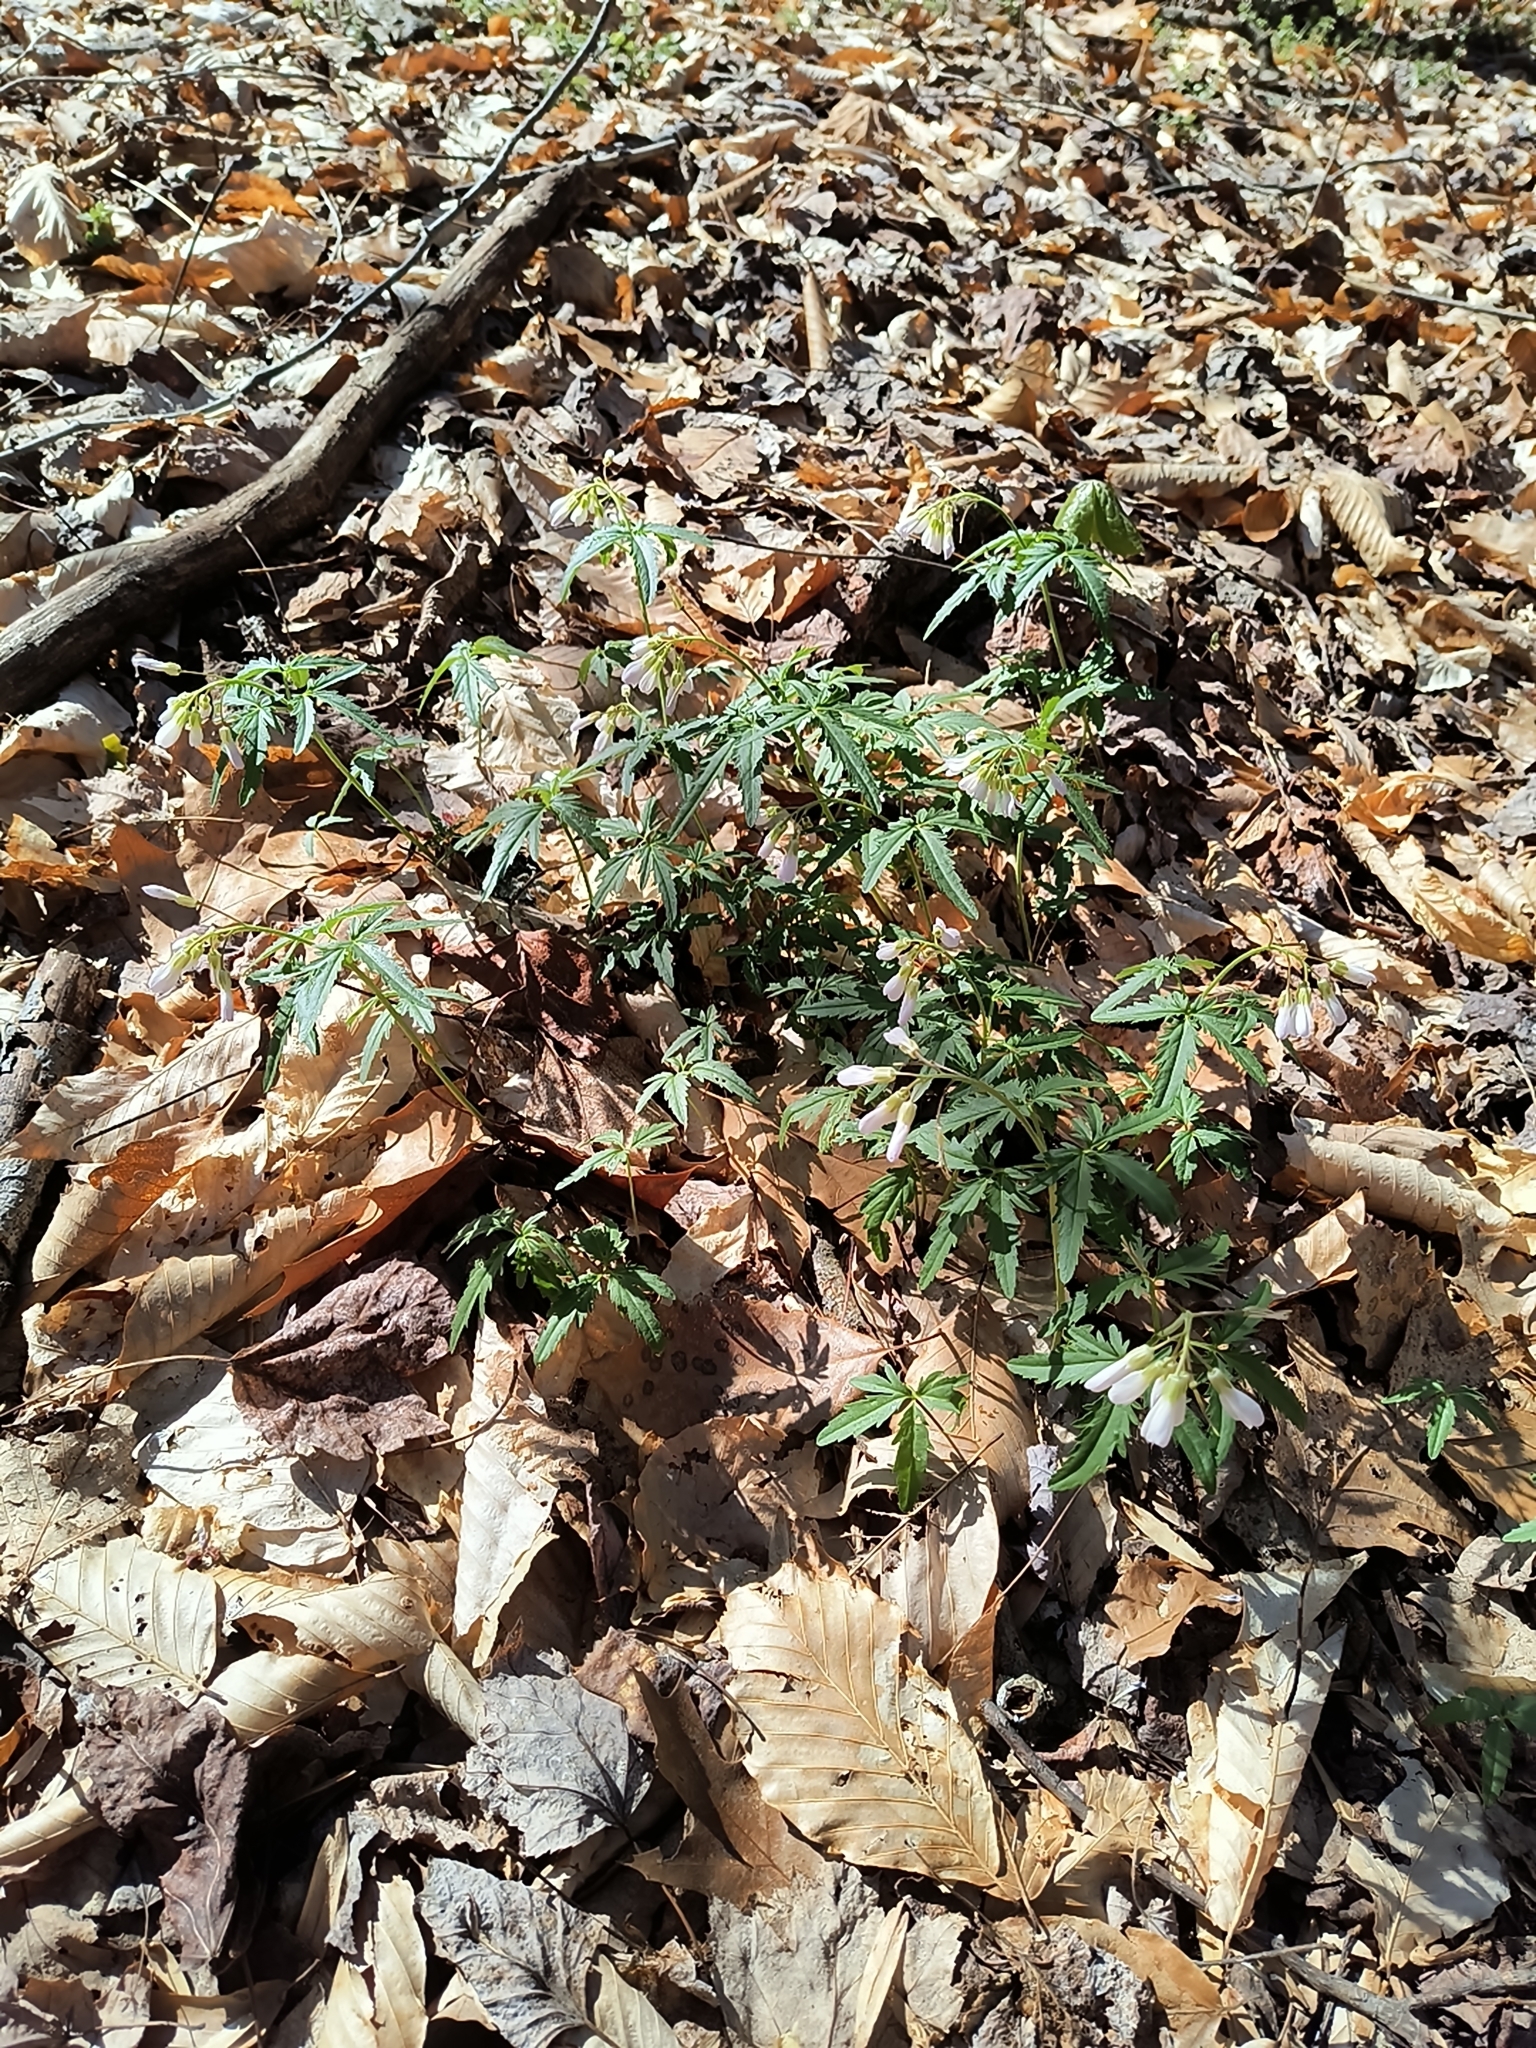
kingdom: Plantae
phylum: Tracheophyta
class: Magnoliopsida
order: Brassicales
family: Brassicaceae
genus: Cardamine
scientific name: Cardamine concatenata
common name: Cut-leaf toothcup
